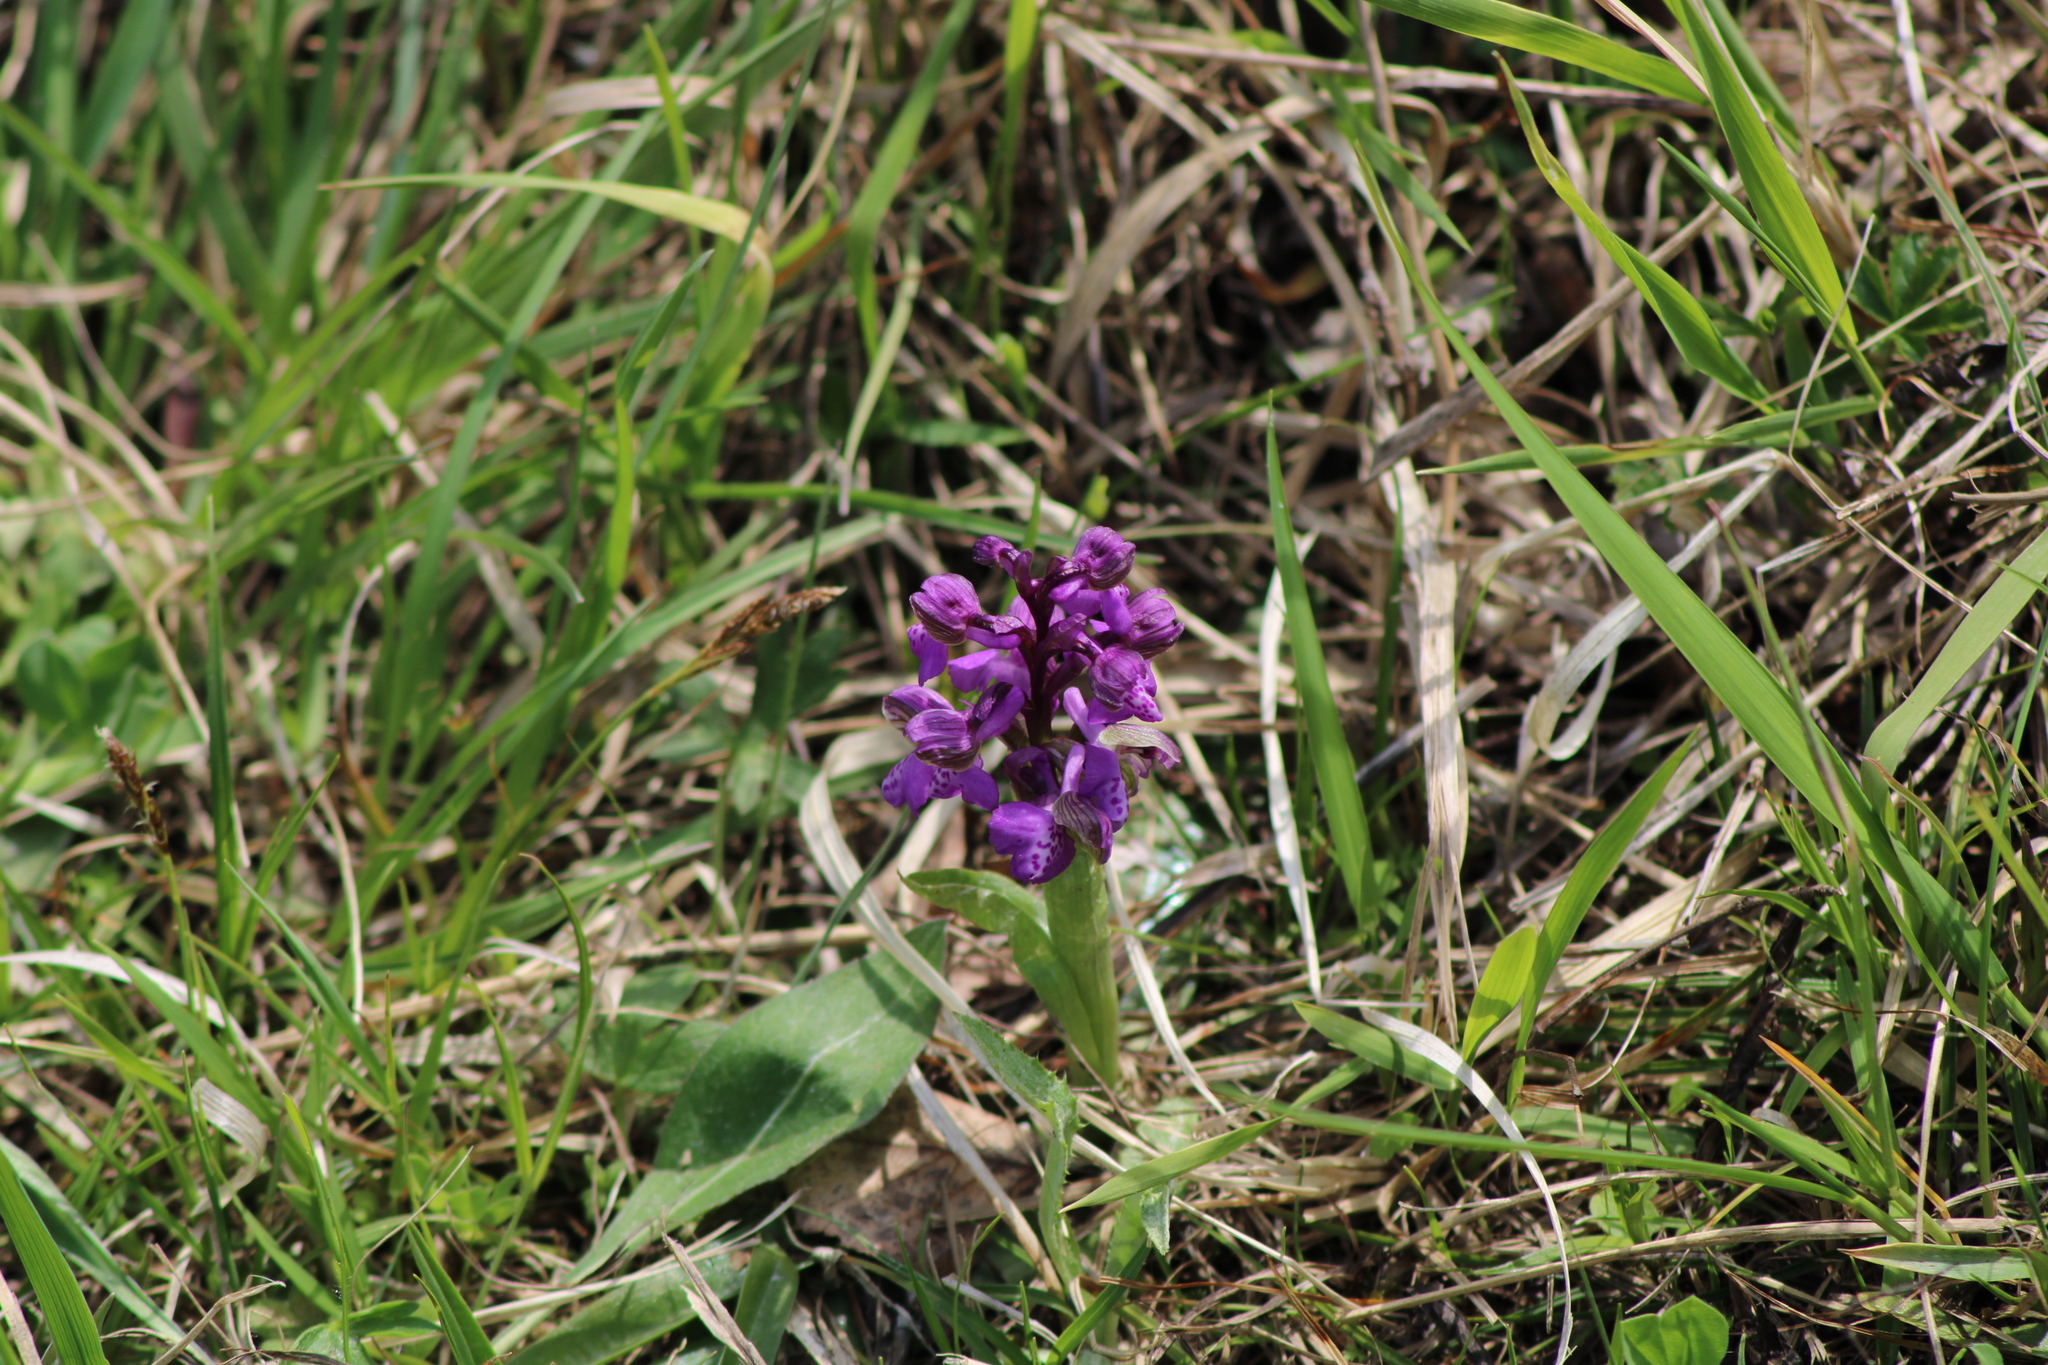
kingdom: Plantae
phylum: Tracheophyta
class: Liliopsida
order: Asparagales
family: Orchidaceae
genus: Anacamptis
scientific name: Anacamptis morio
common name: Green-winged orchid
